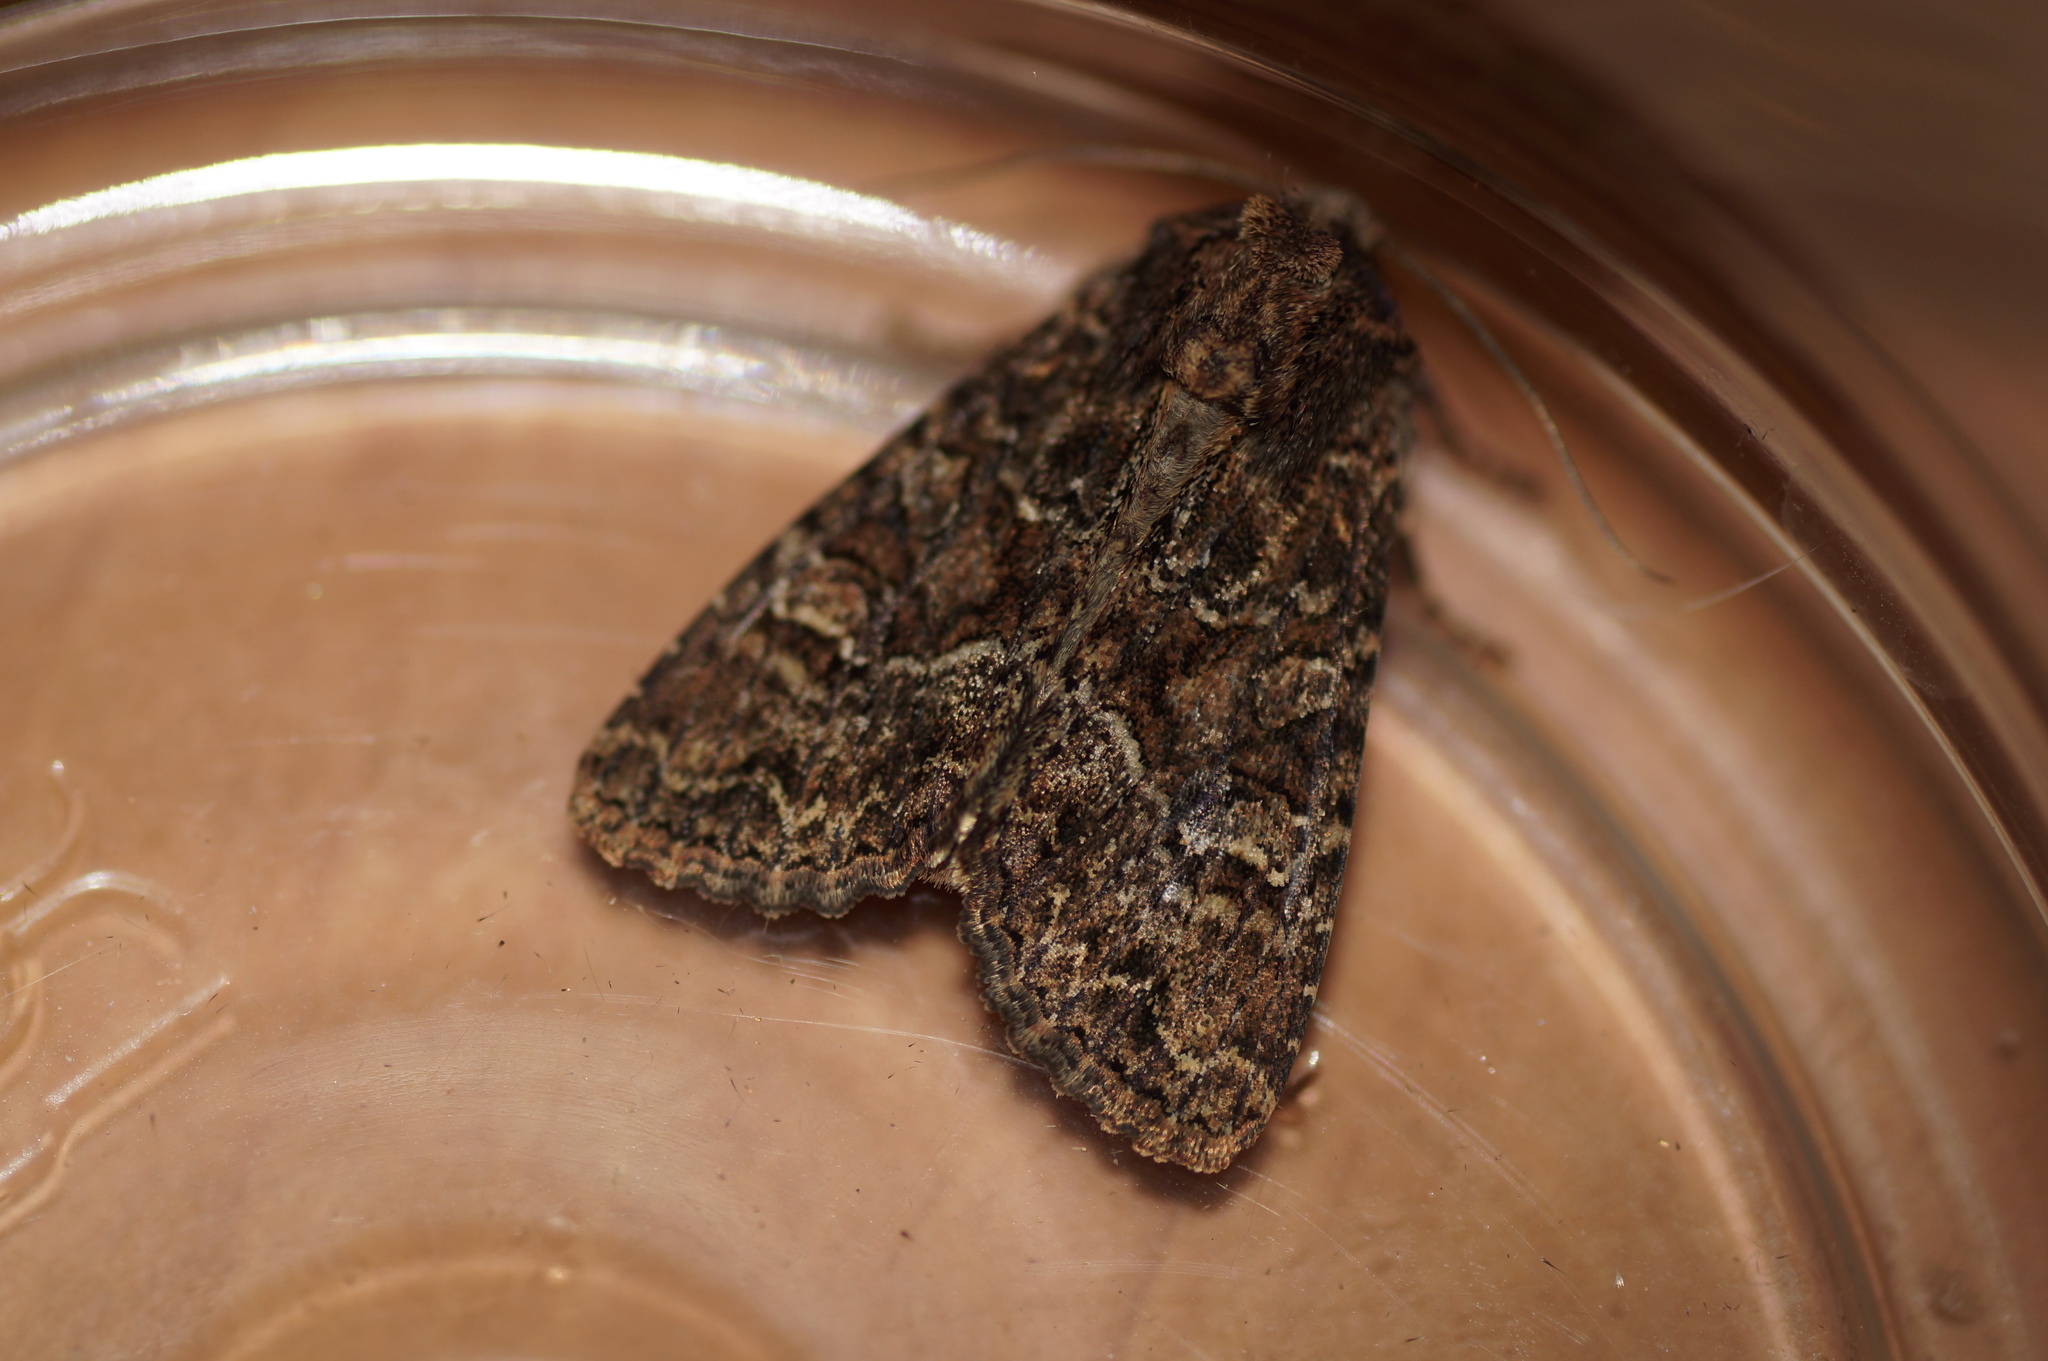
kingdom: Animalia
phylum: Arthropoda
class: Insecta
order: Lepidoptera
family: Noctuidae
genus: Apamea
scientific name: Apamea remissa
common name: Dusky brocade
